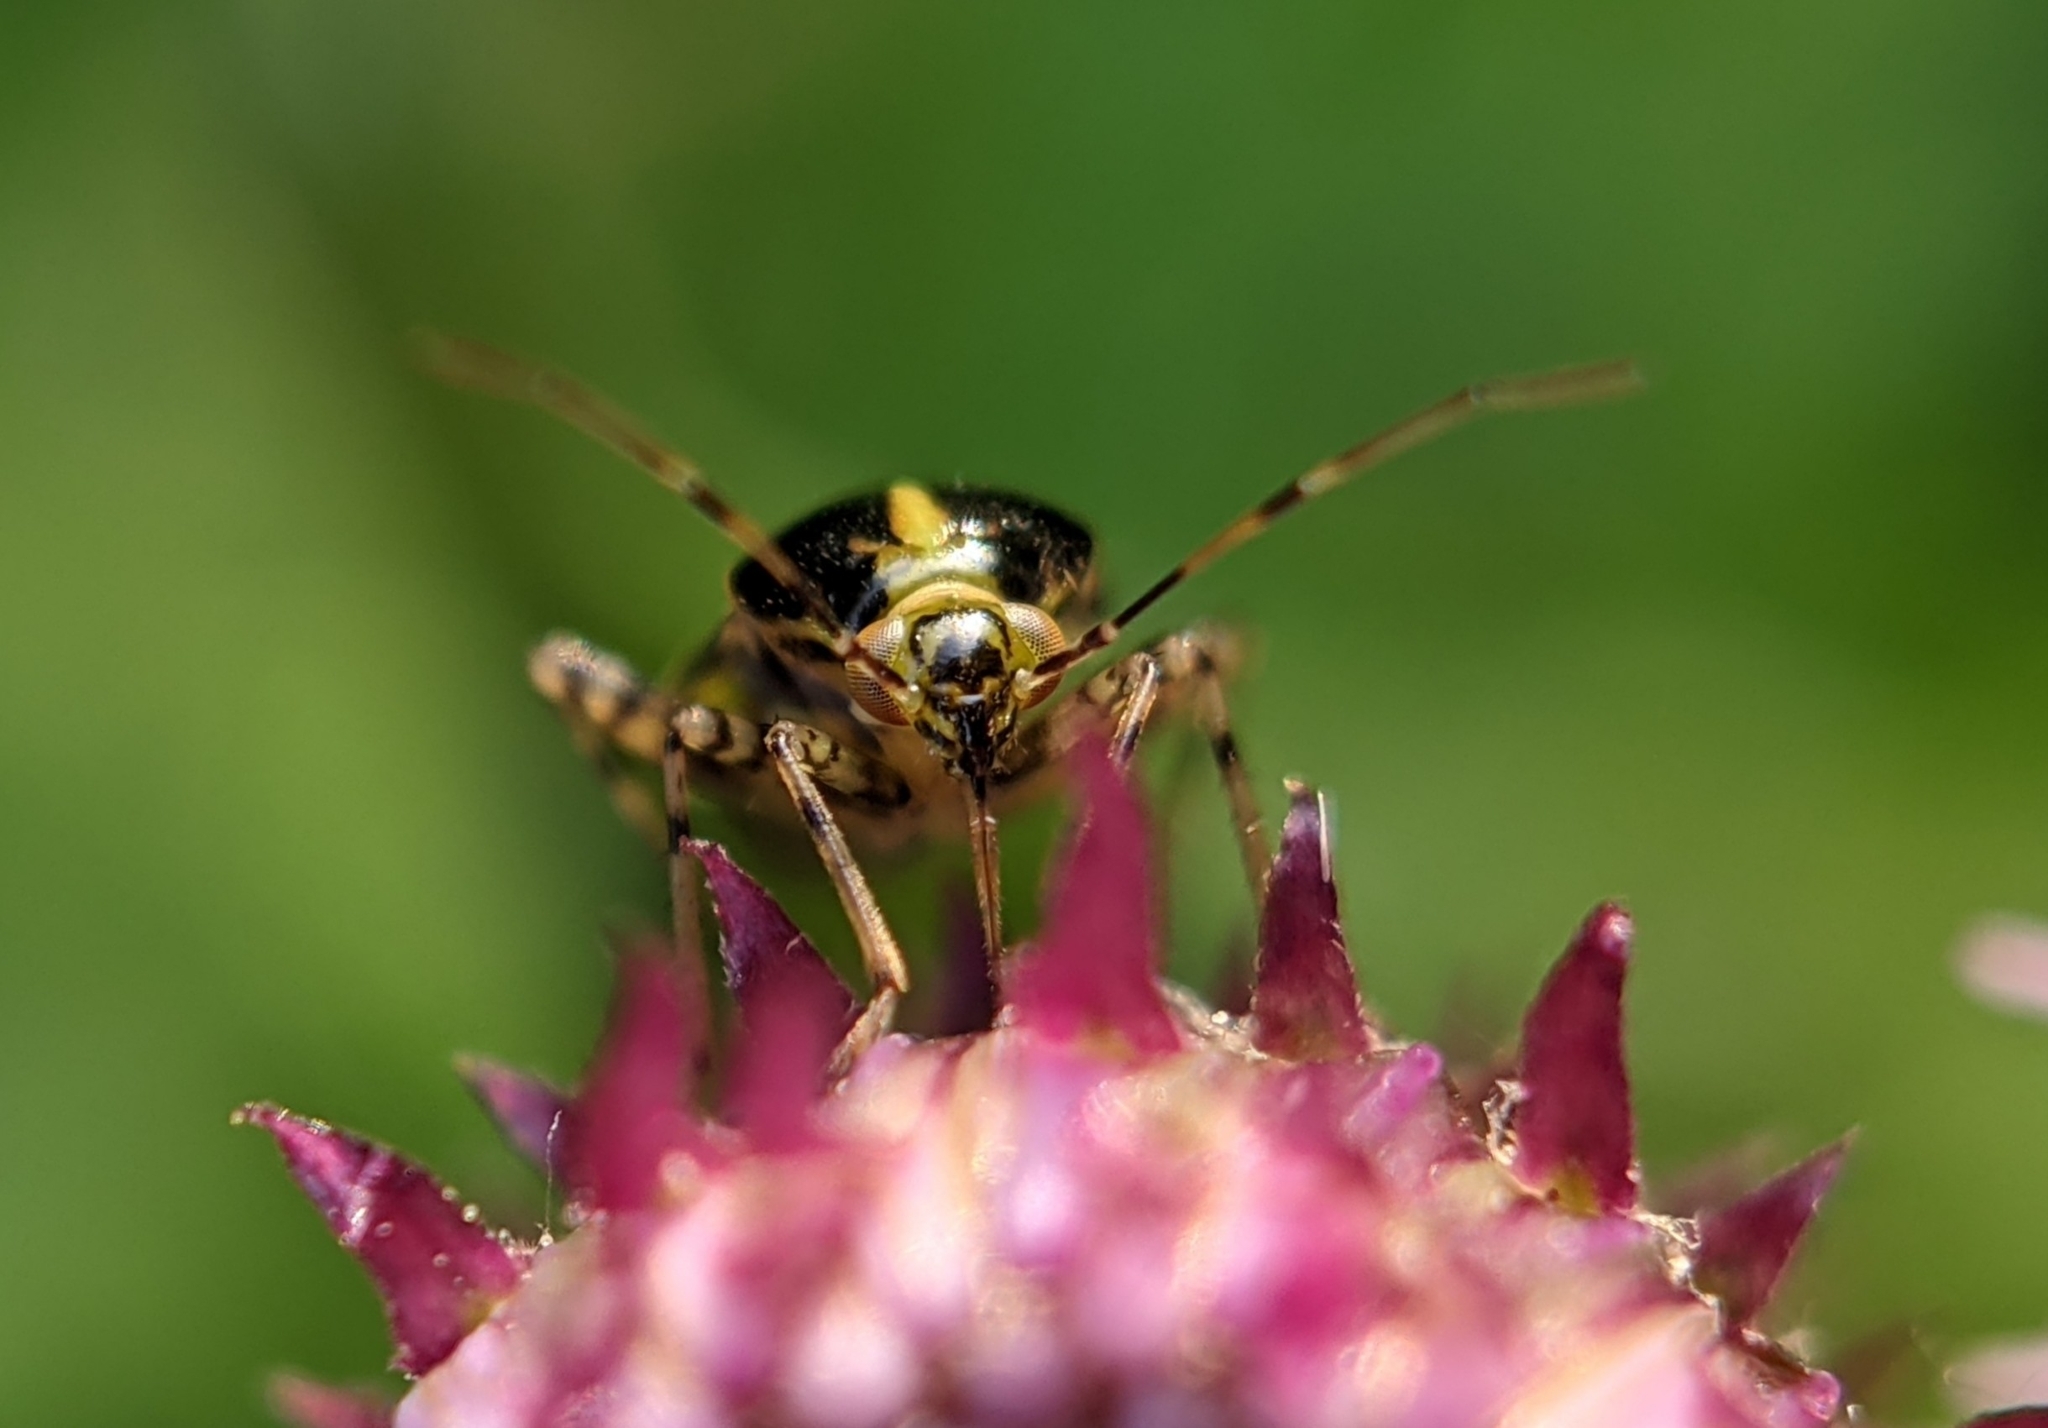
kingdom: Animalia
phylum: Arthropoda
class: Insecta
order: Hemiptera
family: Miridae
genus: Liocoris
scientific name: Liocoris tripustulatus
